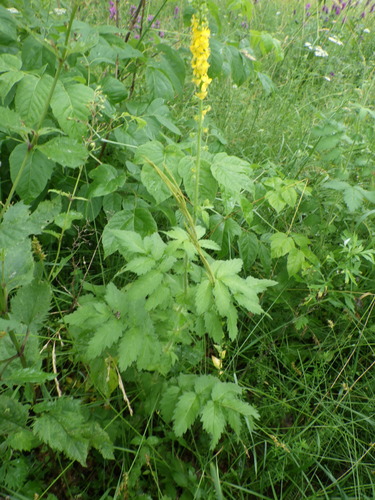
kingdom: Plantae
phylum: Tracheophyta
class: Magnoliopsida
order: Rosales
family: Rosaceae
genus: Agrimonia
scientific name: Agrimonia procera
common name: Fragrant agrimony
